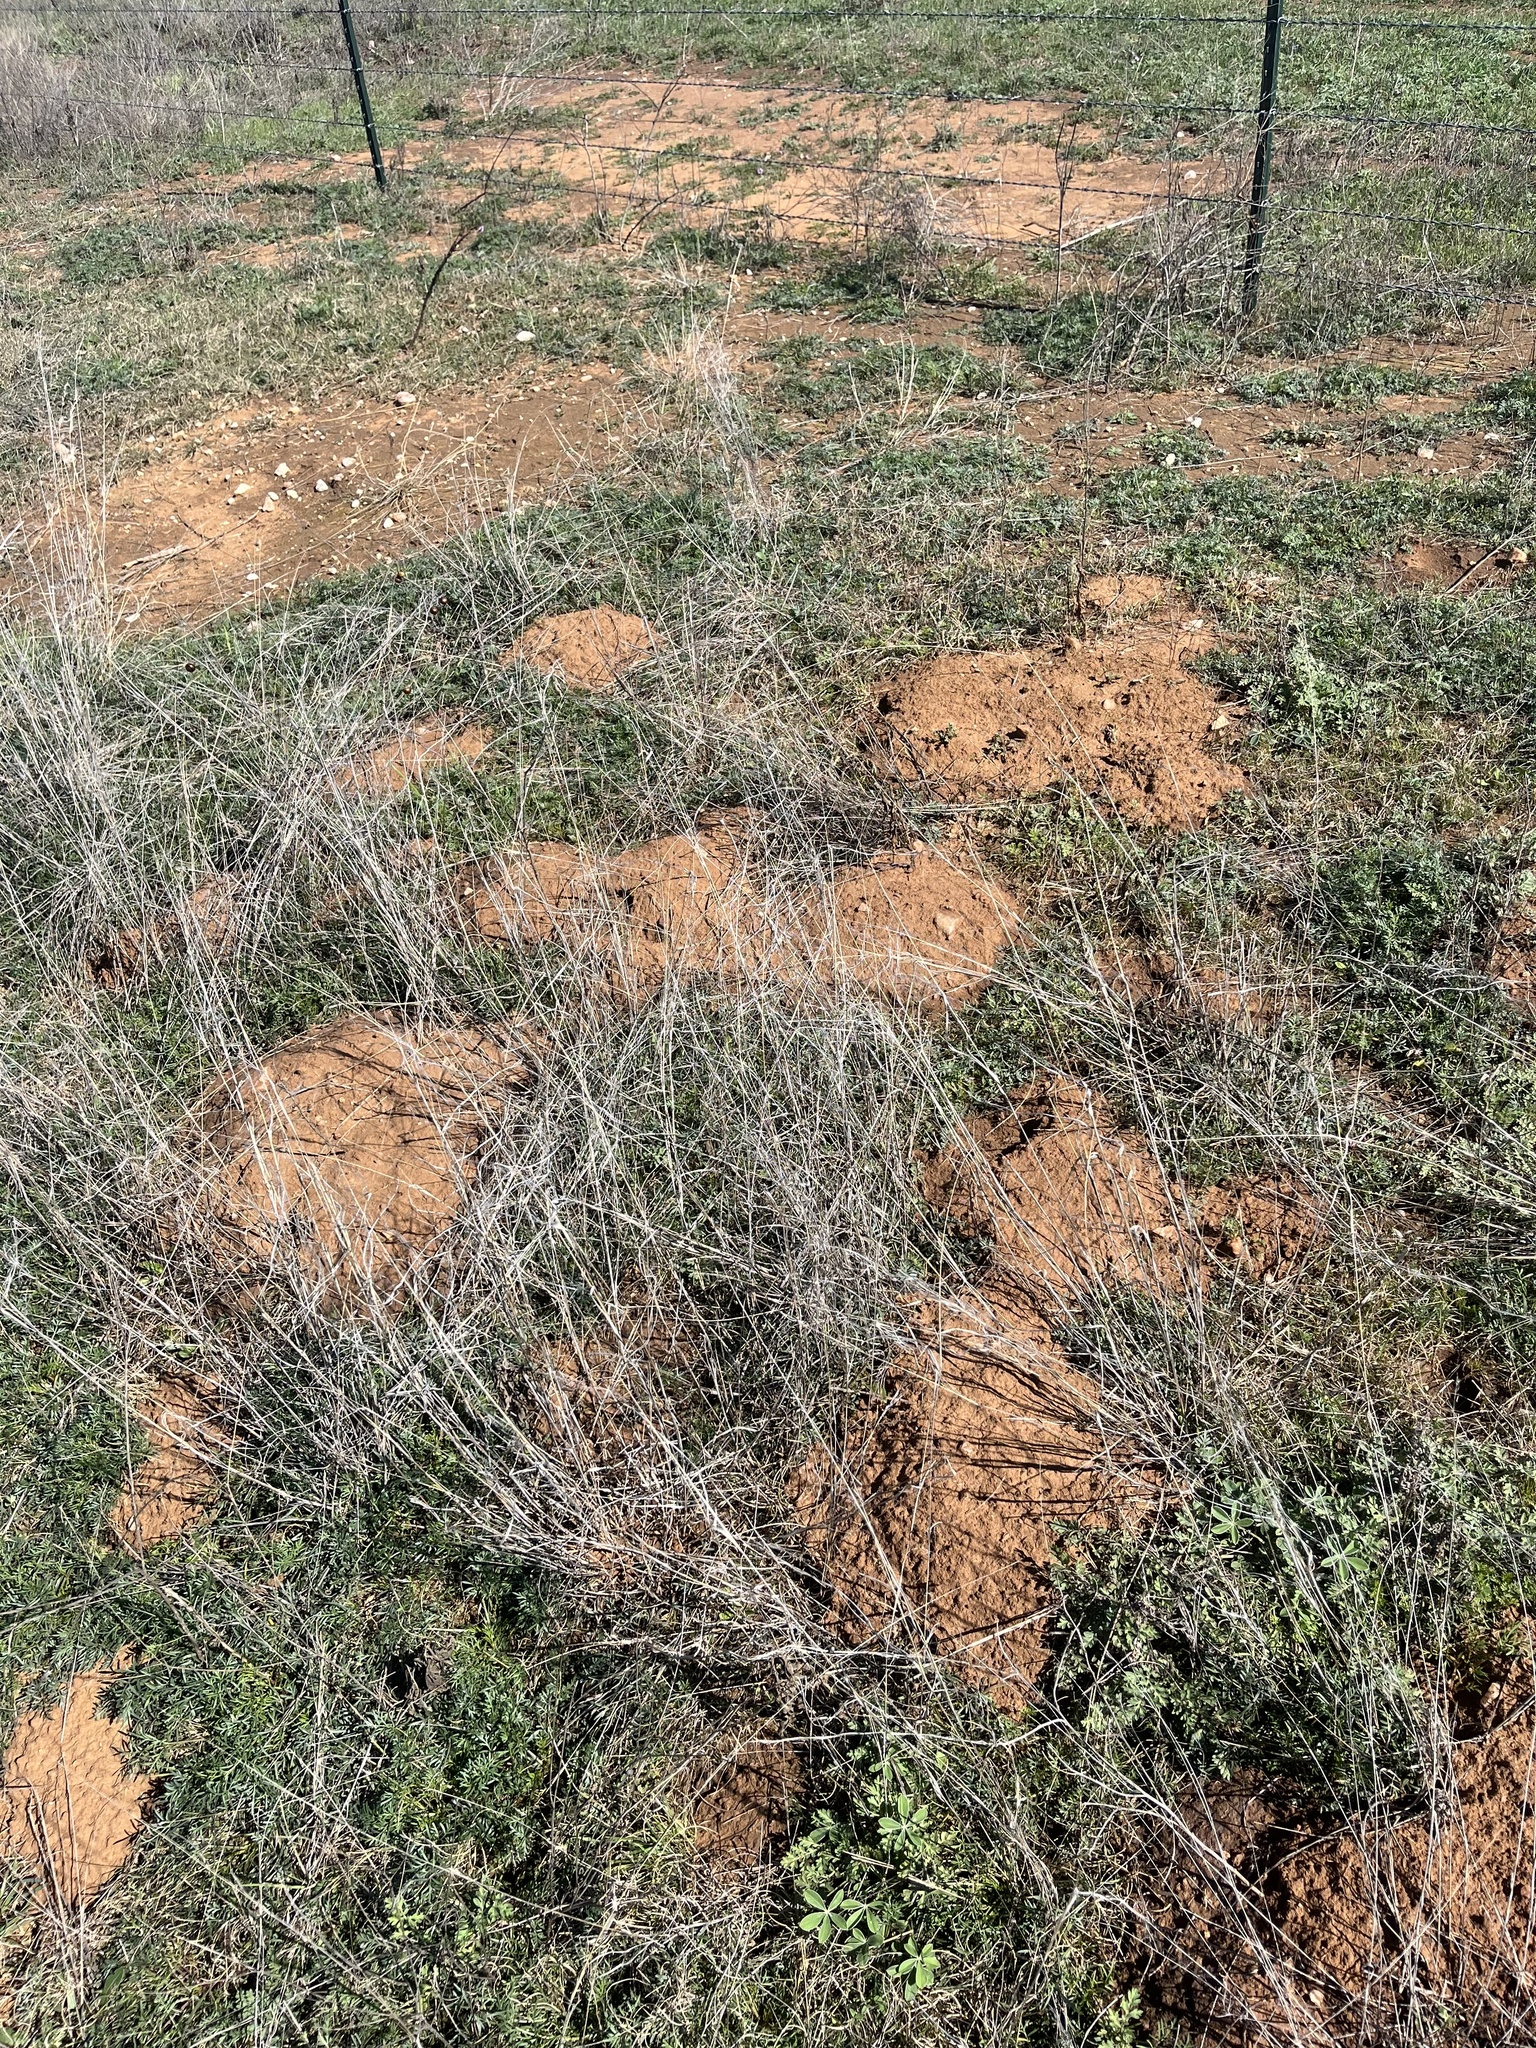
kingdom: Animalia
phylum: Chordata
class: Mammalia
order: Rodentia
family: Geomyidae
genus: Geomys
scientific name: Geomys texensis
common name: Llano pocket gopher
